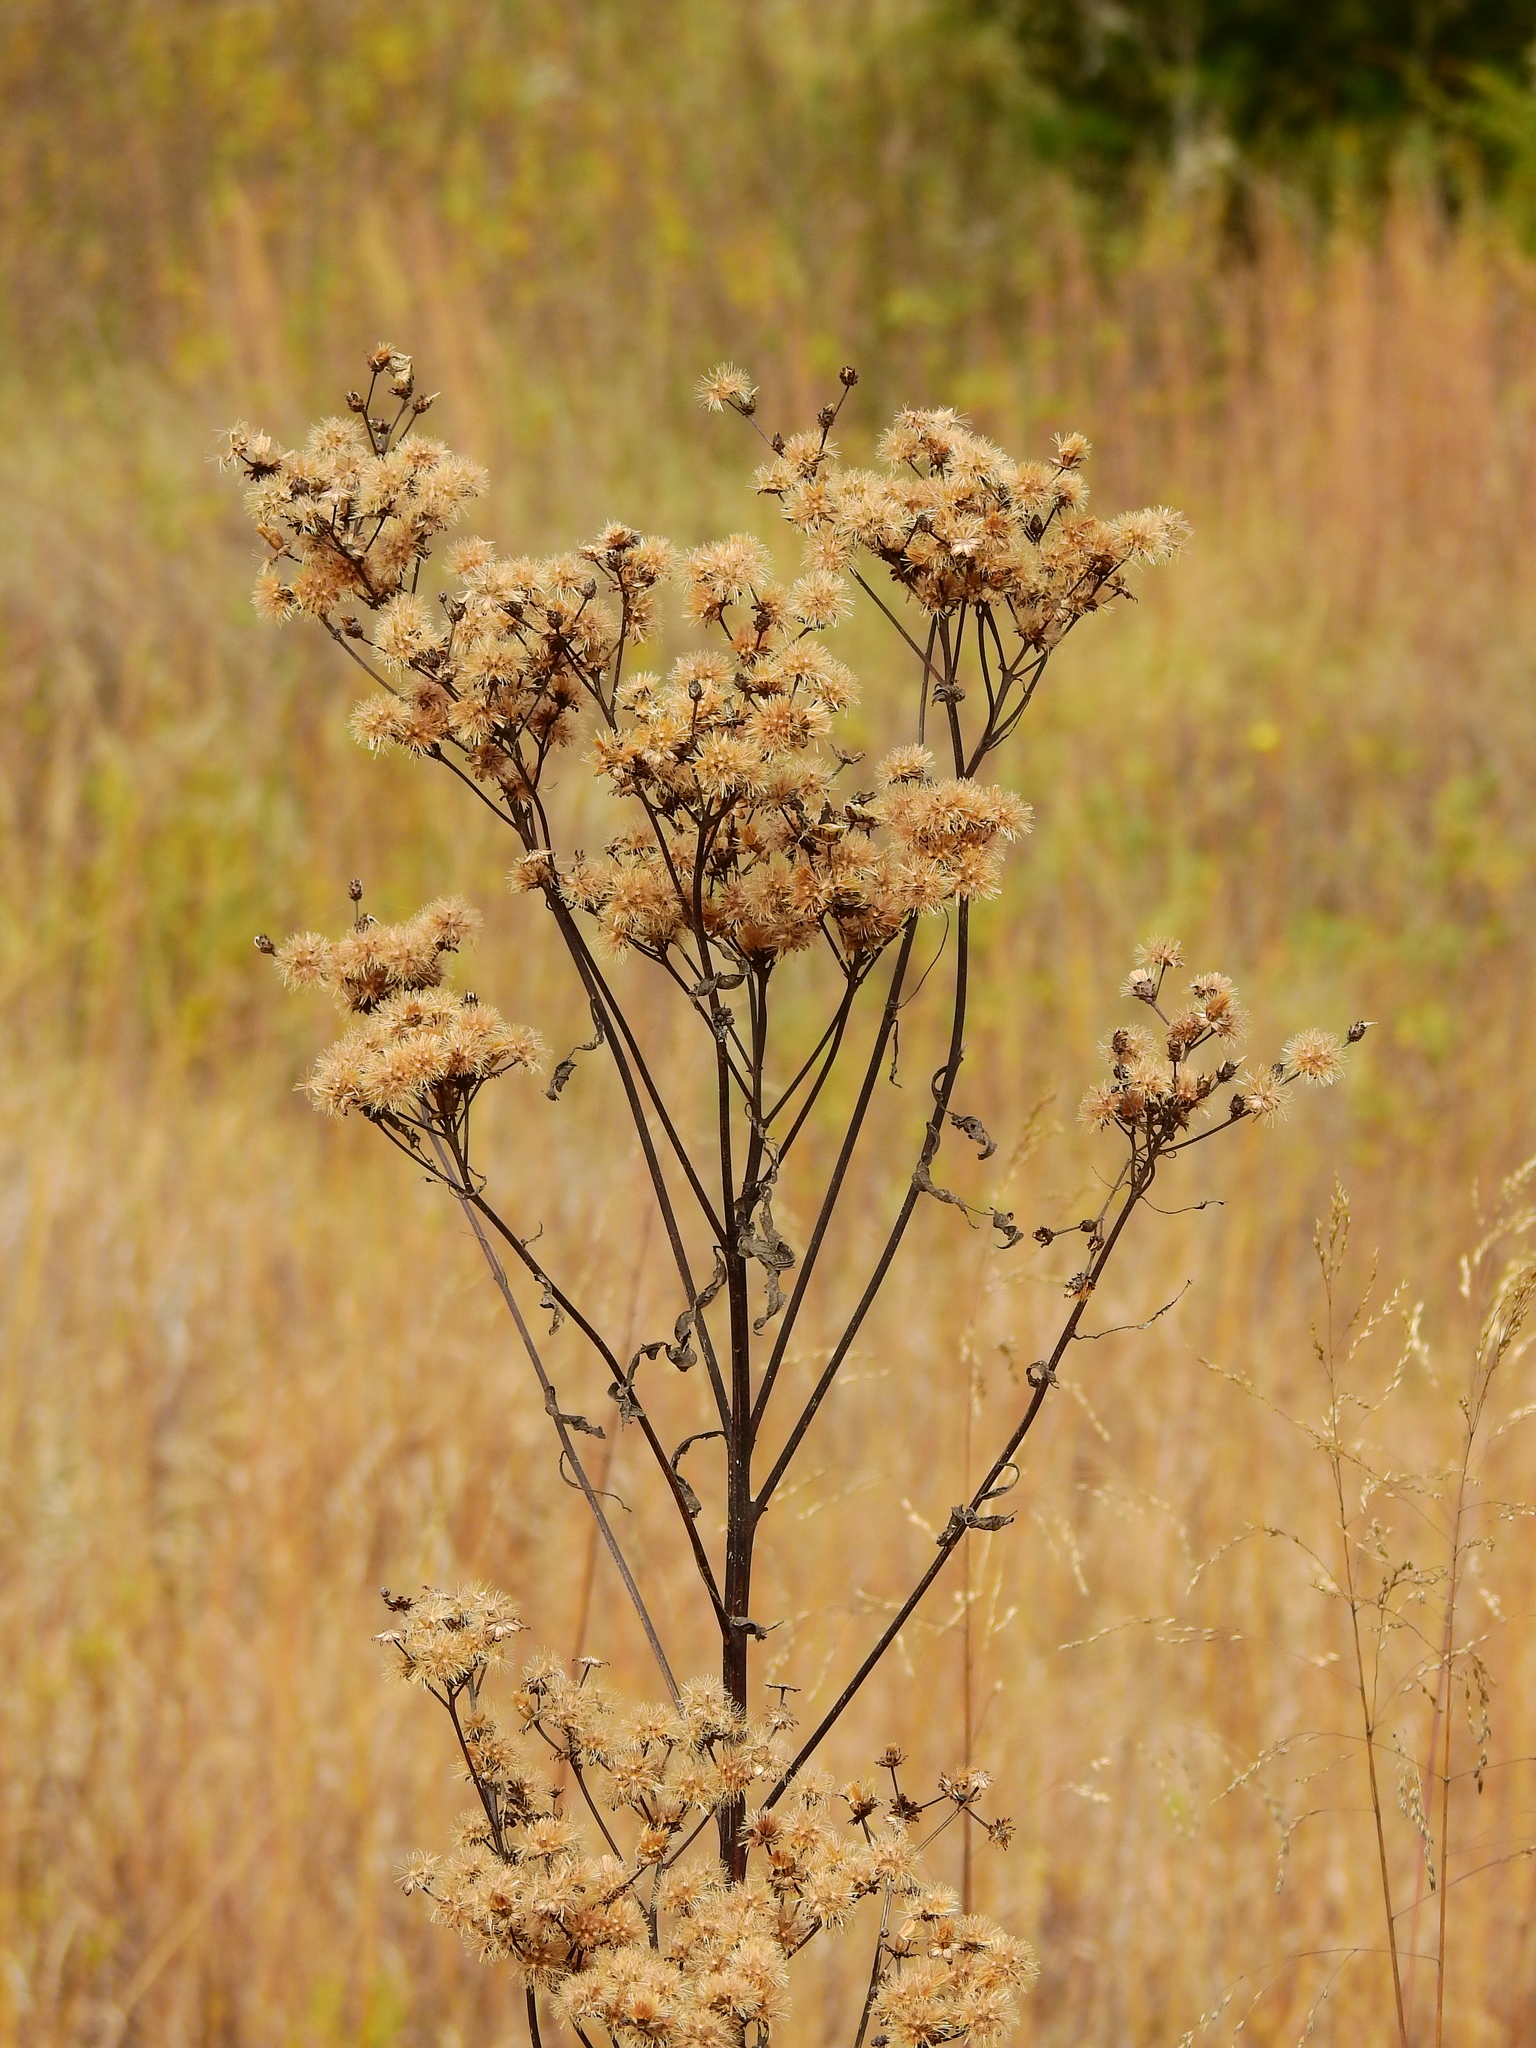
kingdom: Plantae
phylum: Tracheophyta
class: Magnoliopsida
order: Asterales
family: Asteraceae
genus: Vernonia
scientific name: Vernonia gigantea
